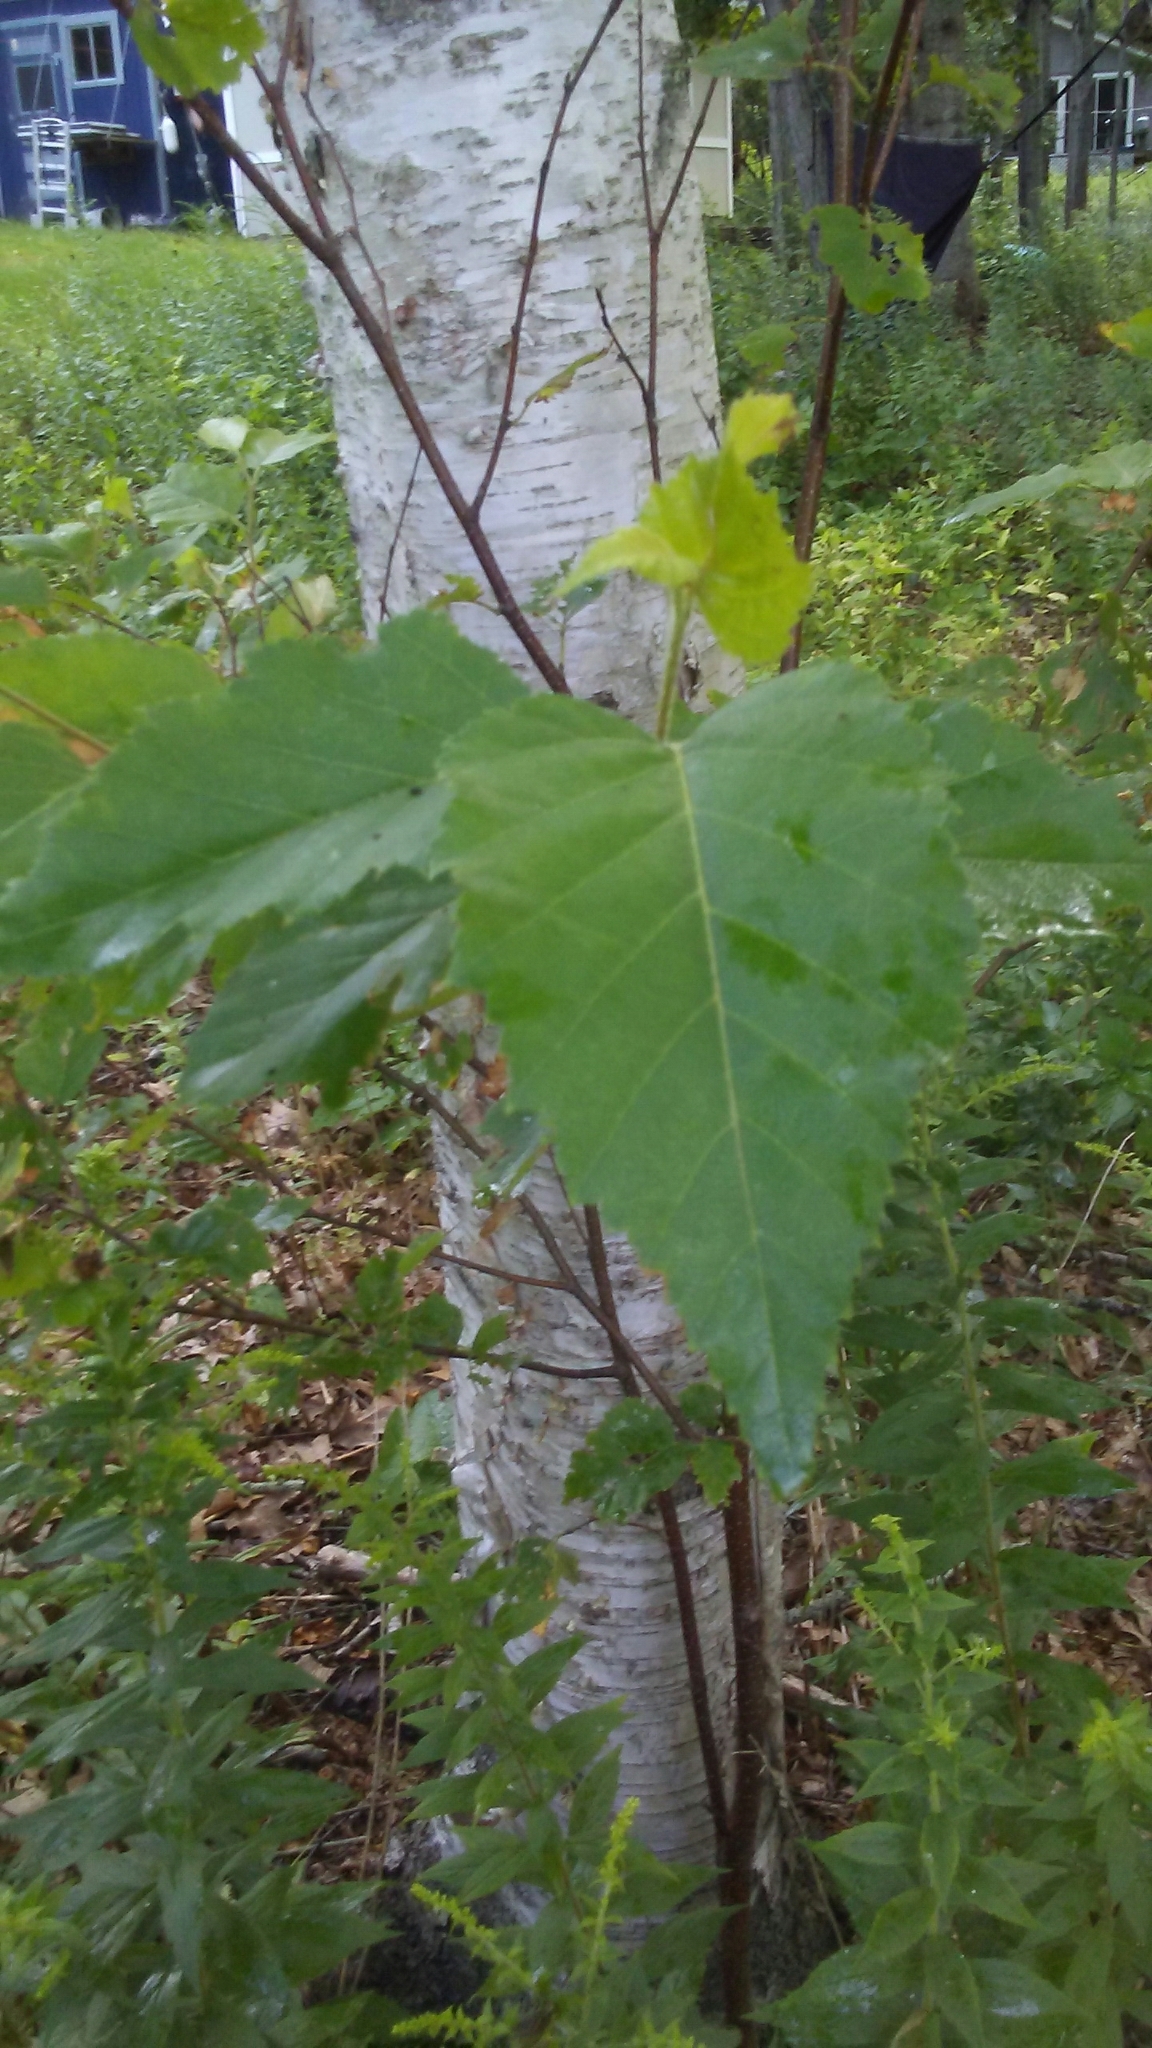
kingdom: Plantae
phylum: Tracheophyta
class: Magnoliopsida
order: Fagales
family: Betulaceae
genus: Betula
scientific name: Betula papyrifera
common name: Paper birch
